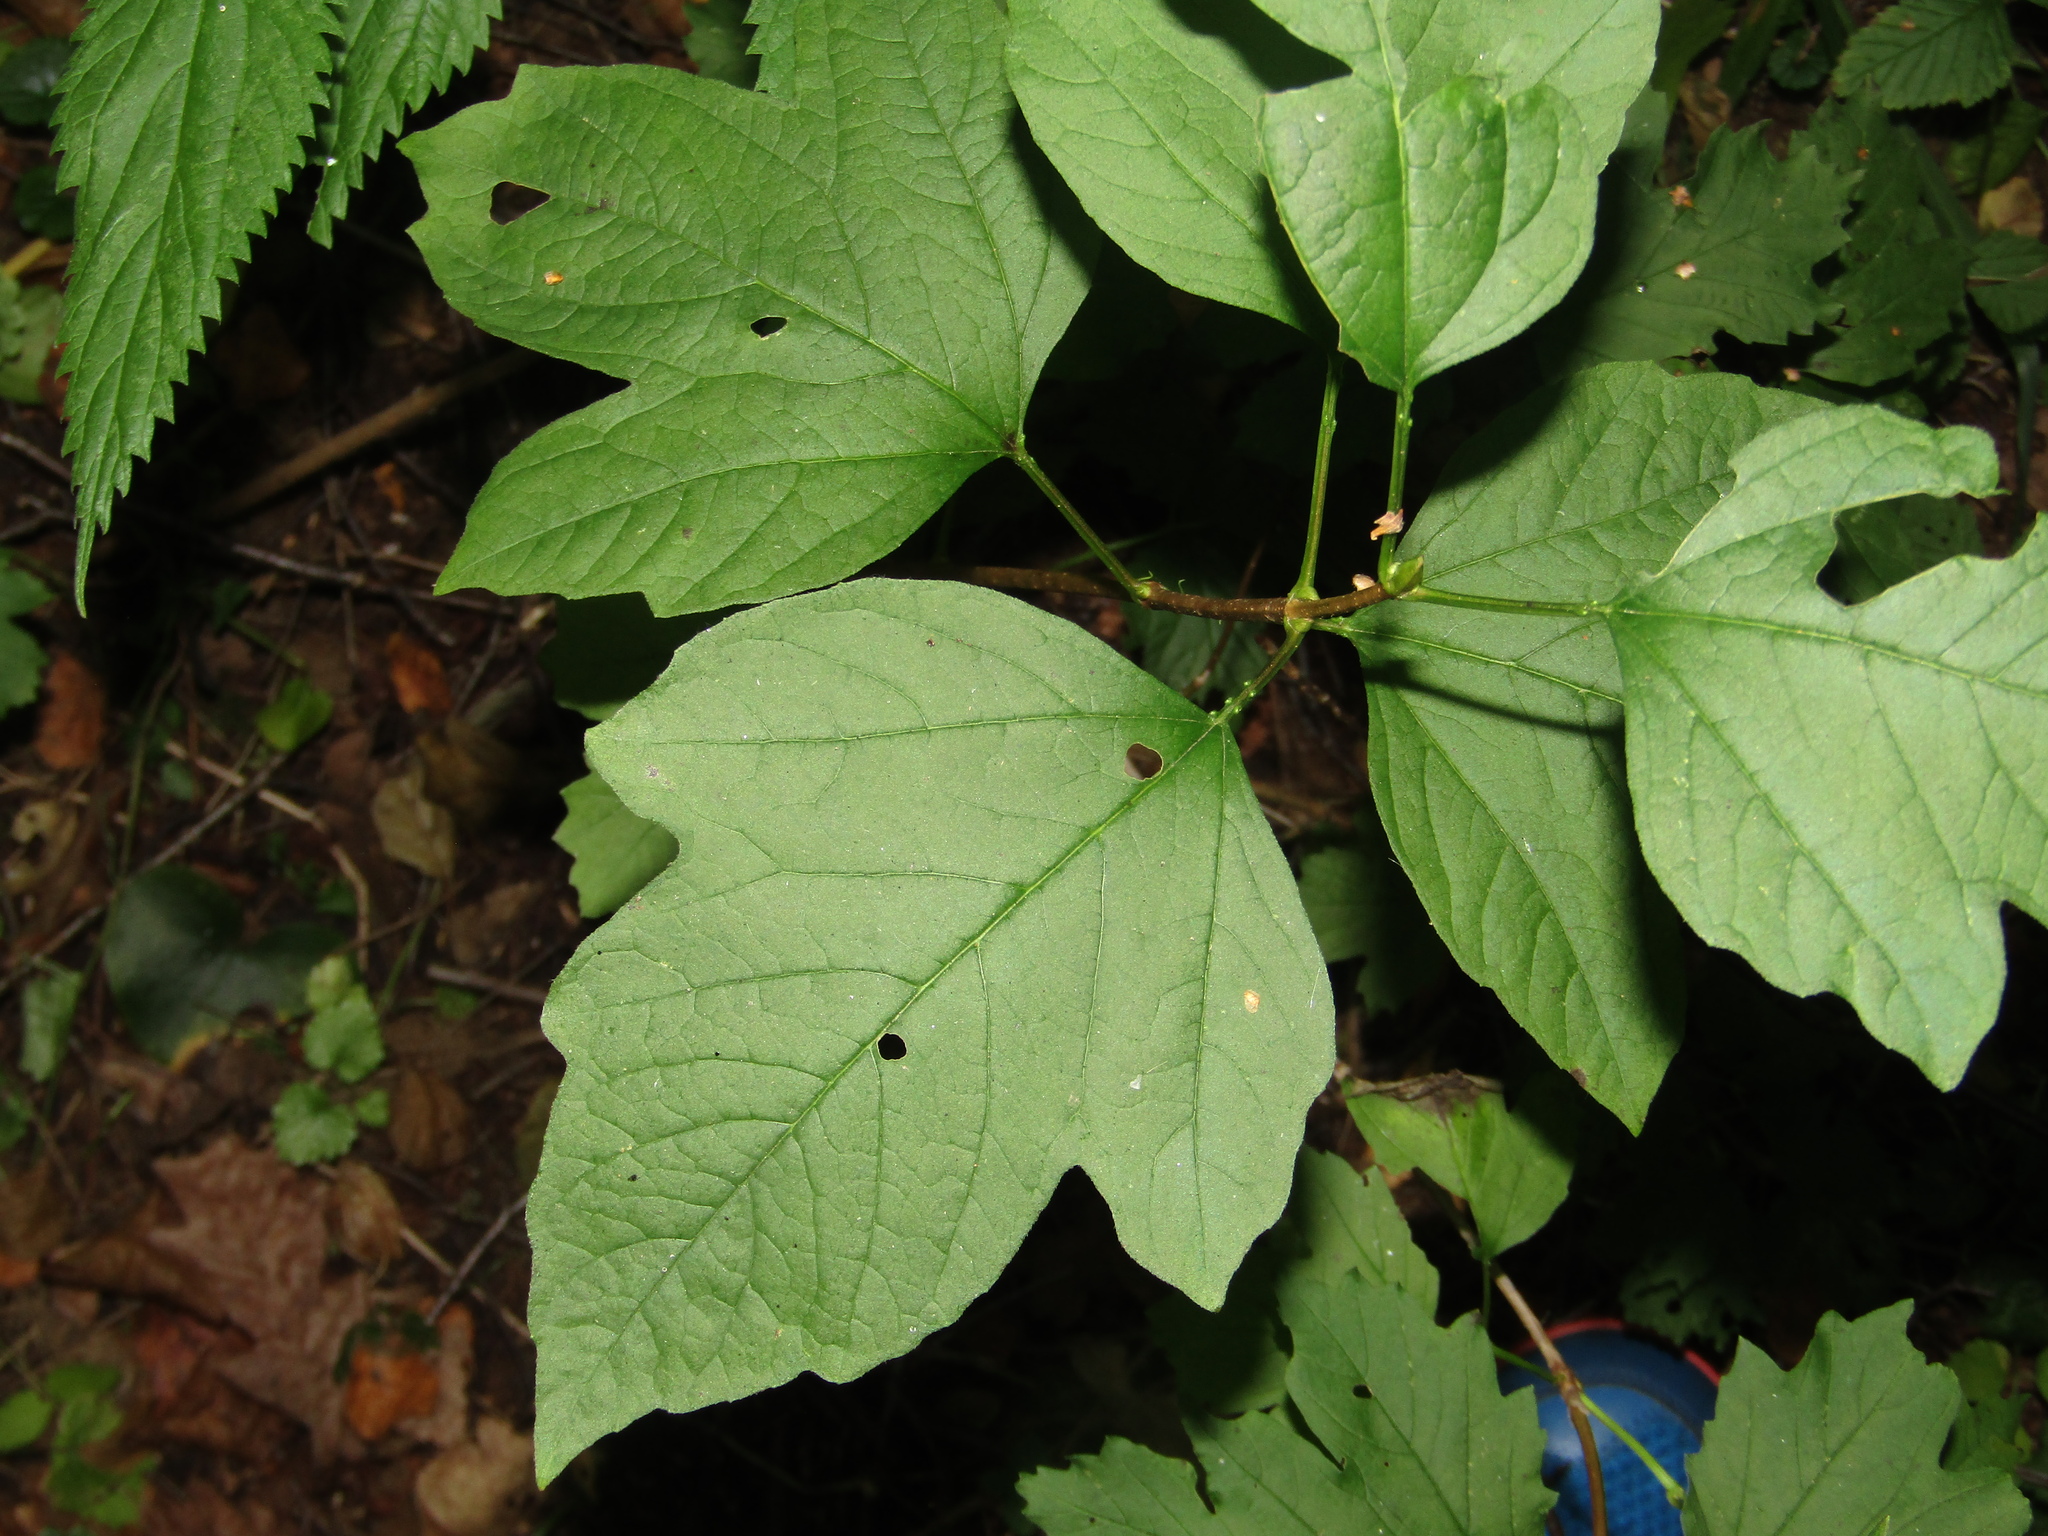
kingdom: Plantae
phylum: Tracheophyta
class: Magnoliopsida
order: Dipsacales
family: Viburnaceae
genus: Viburnum
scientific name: Viburnum opulus
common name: Guelder-rose
